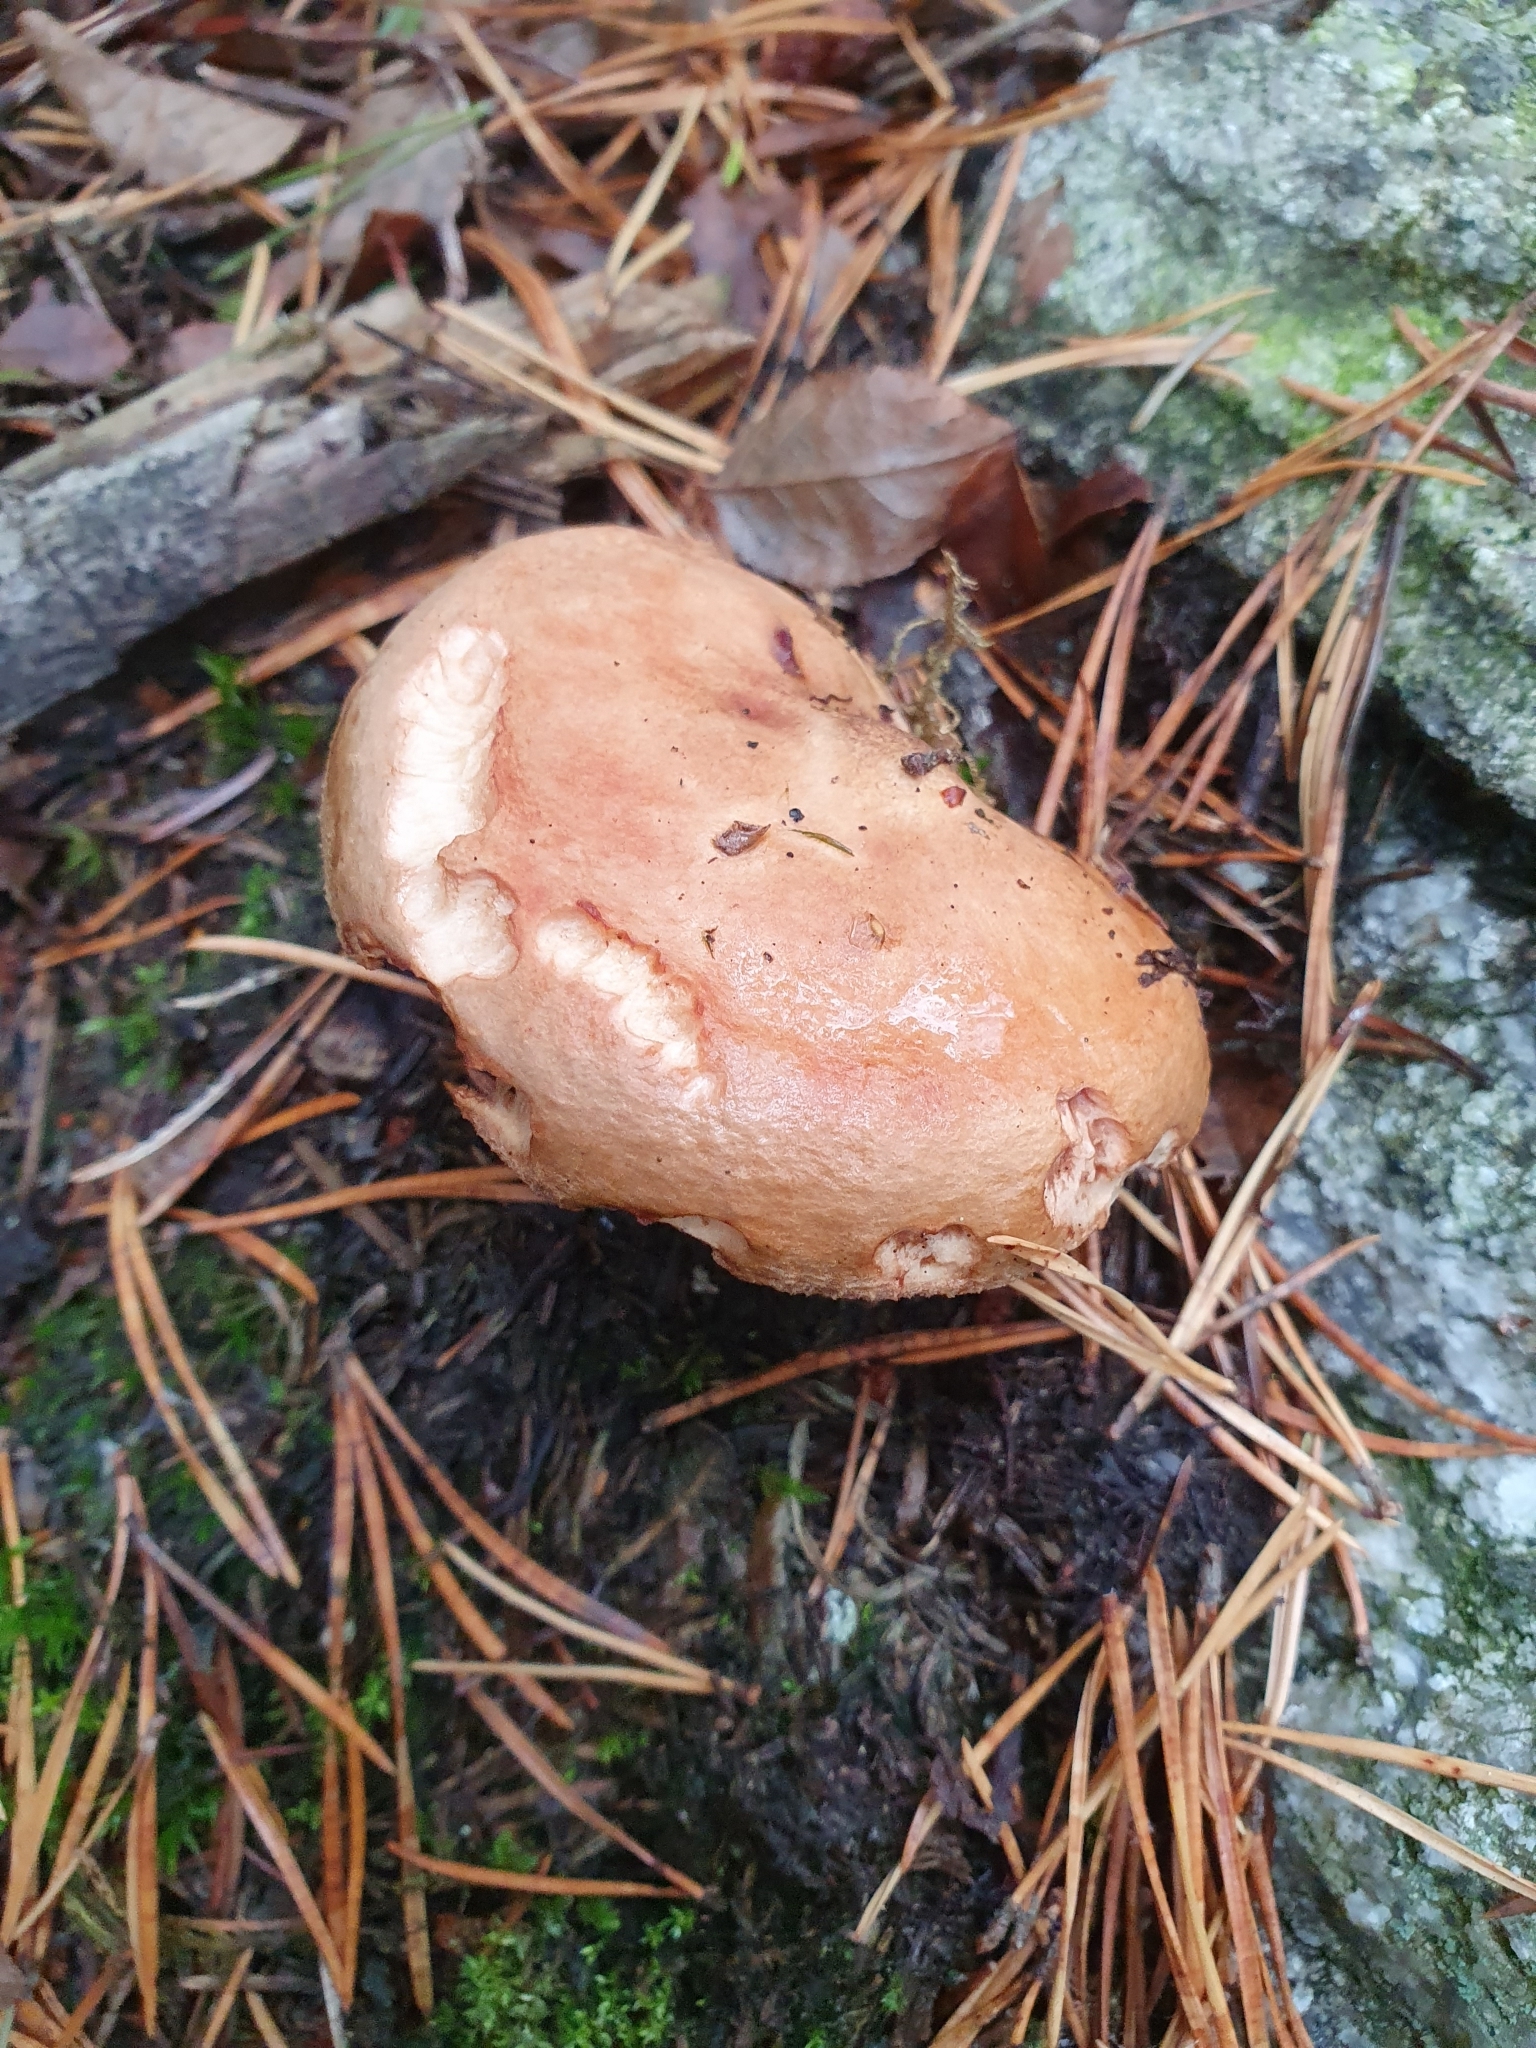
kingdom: Fungi
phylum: Basidiomycota
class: Agaricomycetes
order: Boletales
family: Paxillaceae
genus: Paxillus
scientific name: Paxillus involutus
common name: Brown roll rim
